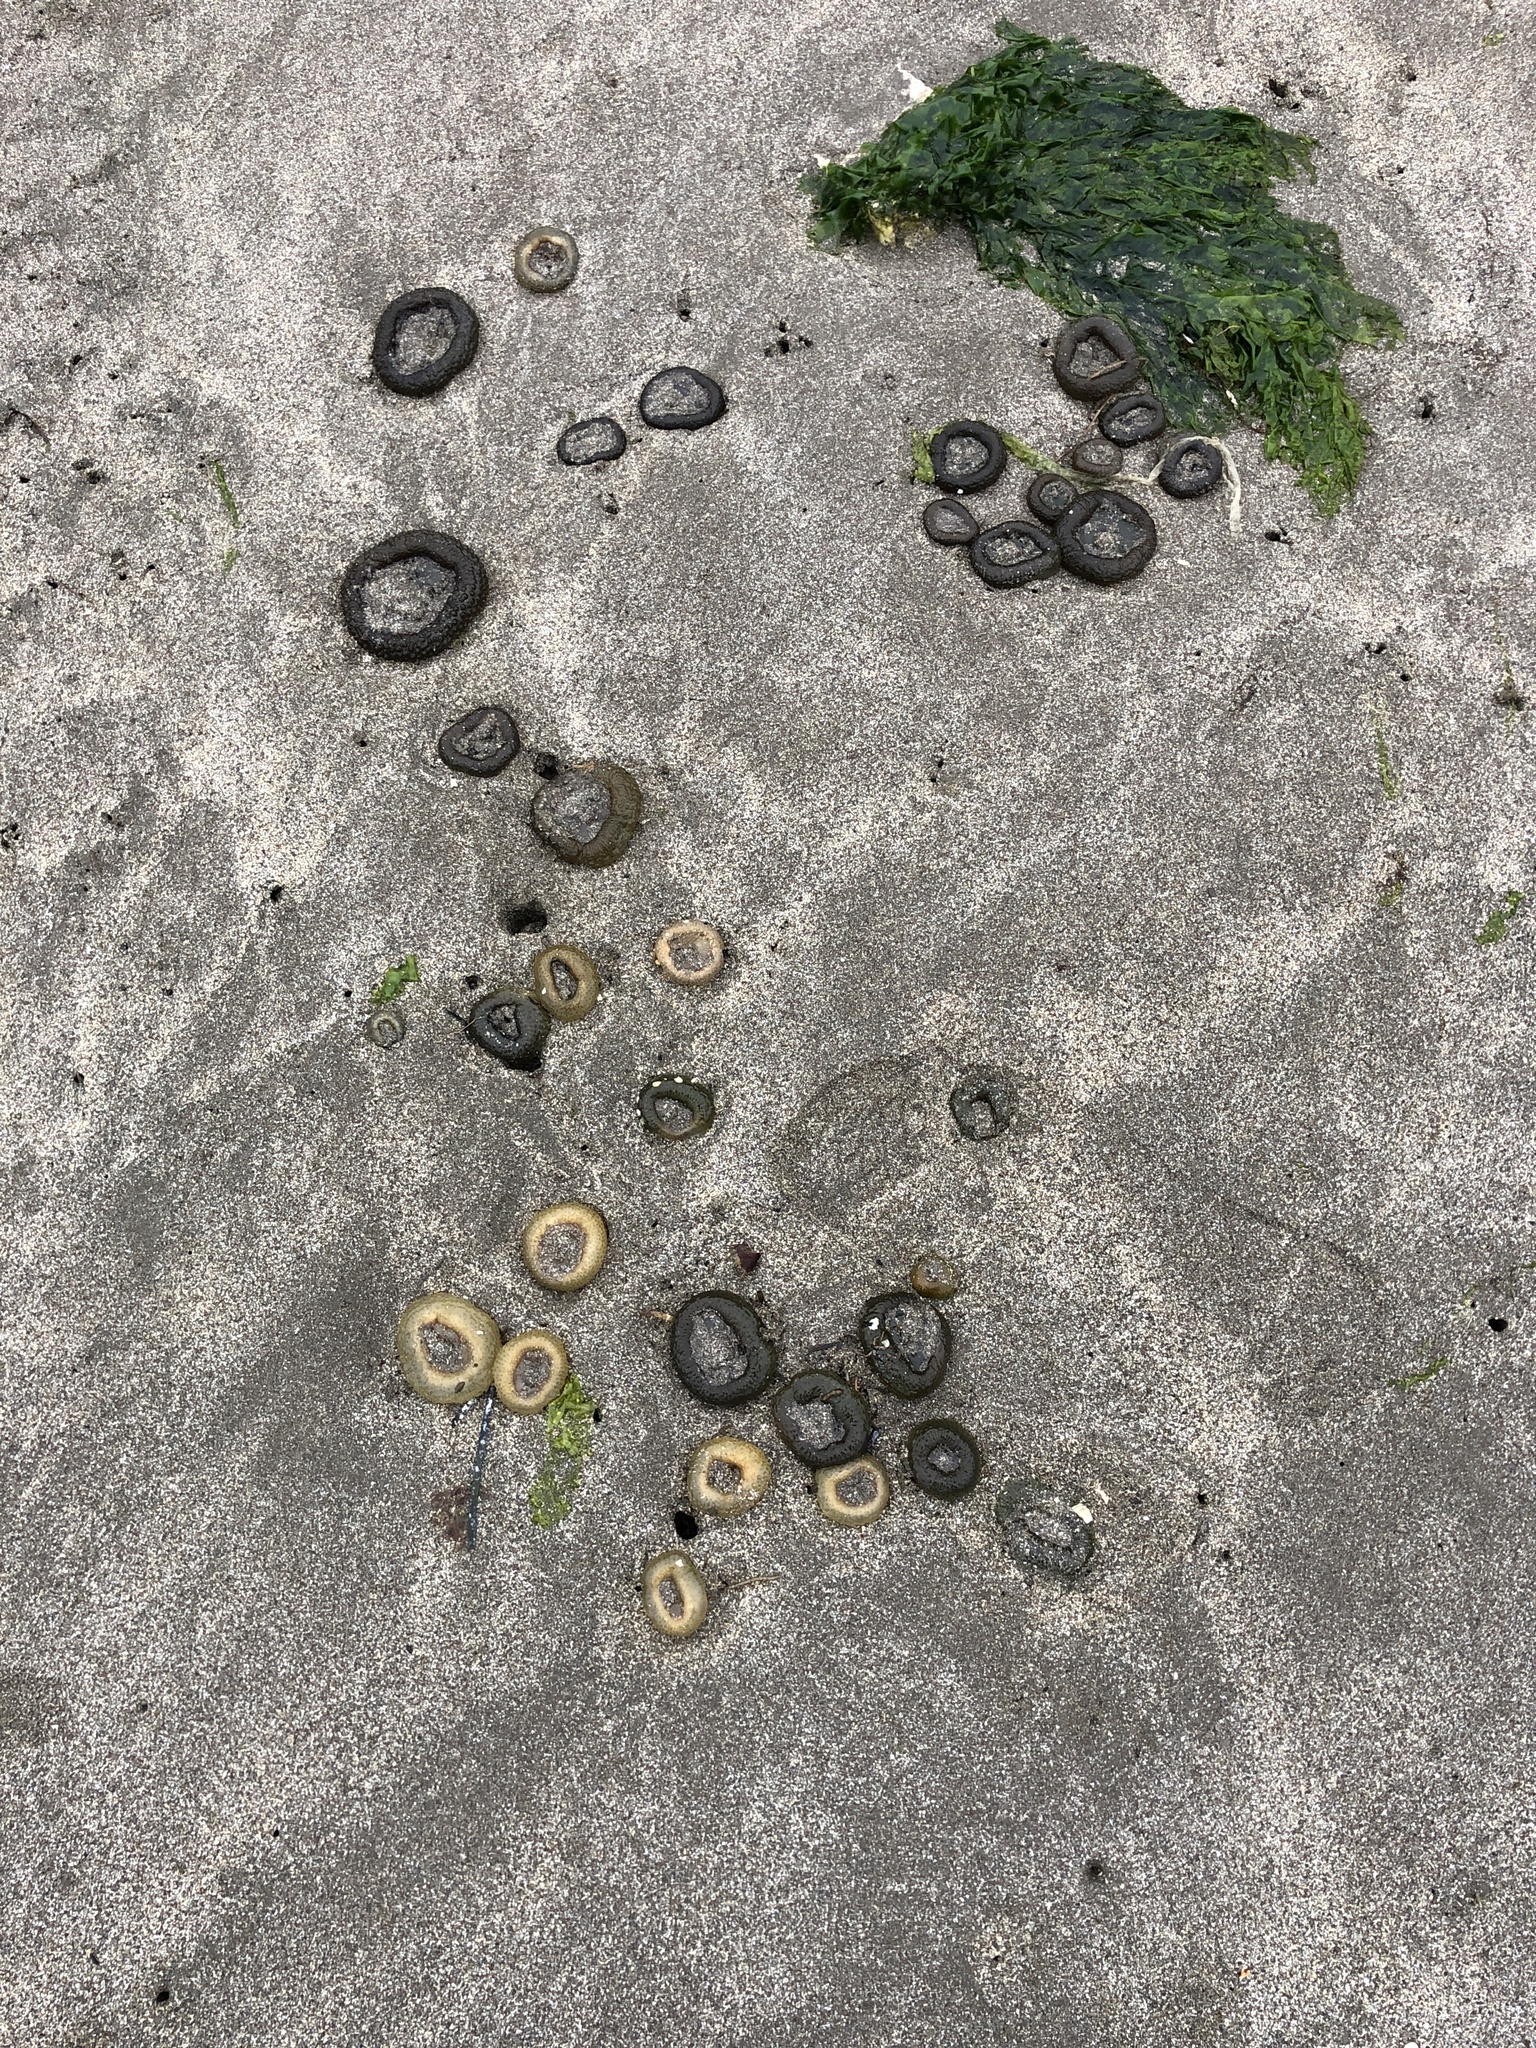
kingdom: Animalia
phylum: Cnidaria
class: Anthozoa
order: Actiniaria
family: Actiniidae
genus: Anthopleura
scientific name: Anthopleura elegantissima
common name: Clonal anemone
